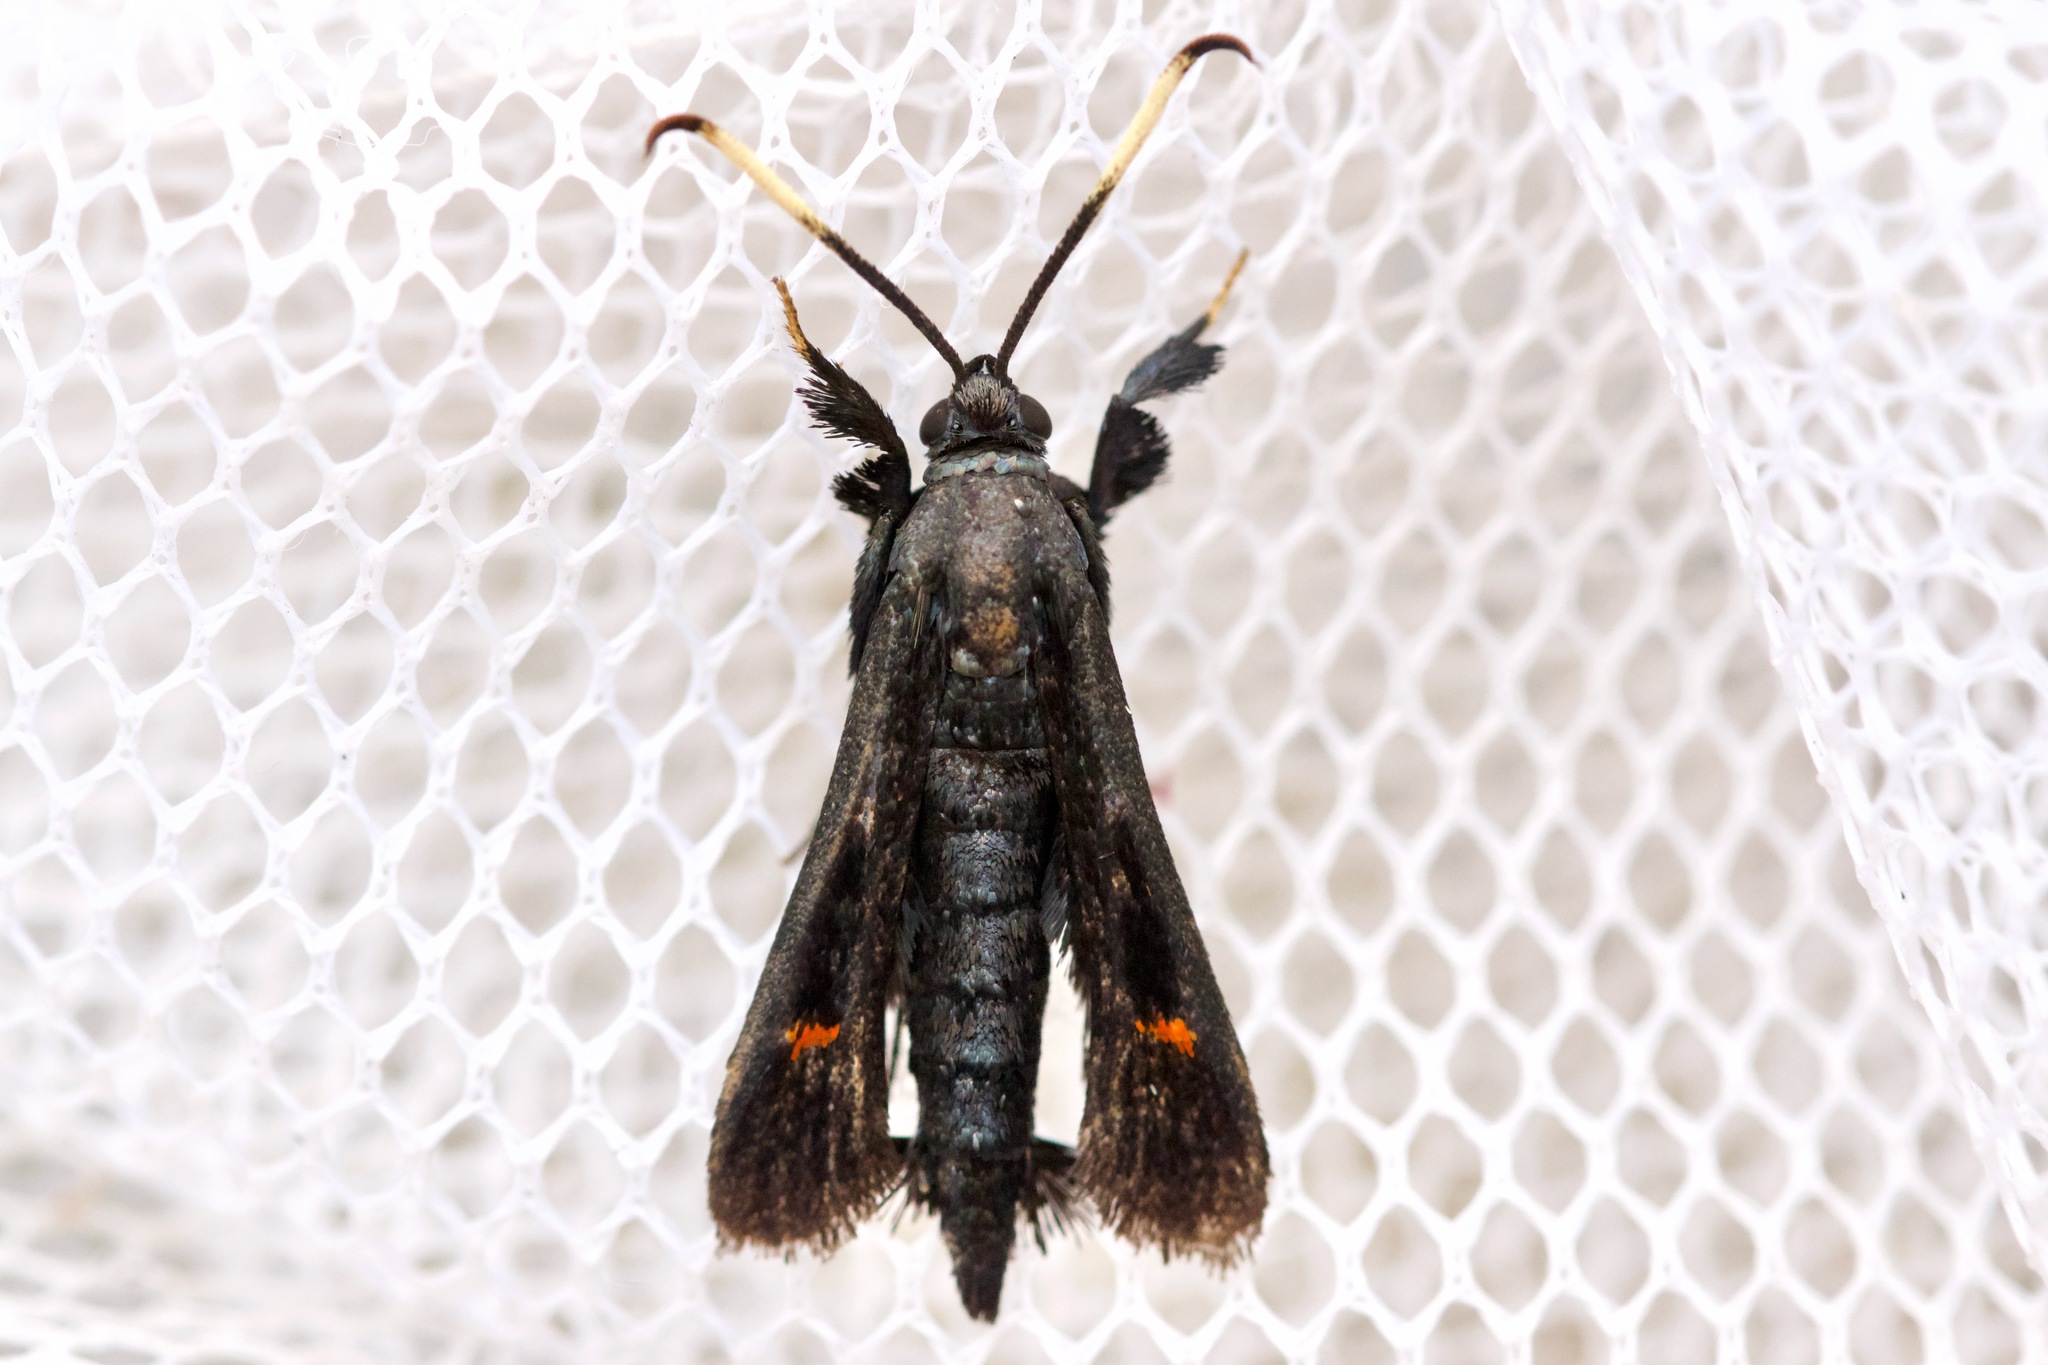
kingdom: Animalia
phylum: Arthropoda
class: Insecta
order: Lepidoptera
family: Sesiidae
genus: Albuna
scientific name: Albuna fraxini
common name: Virginia creeper clearwing
